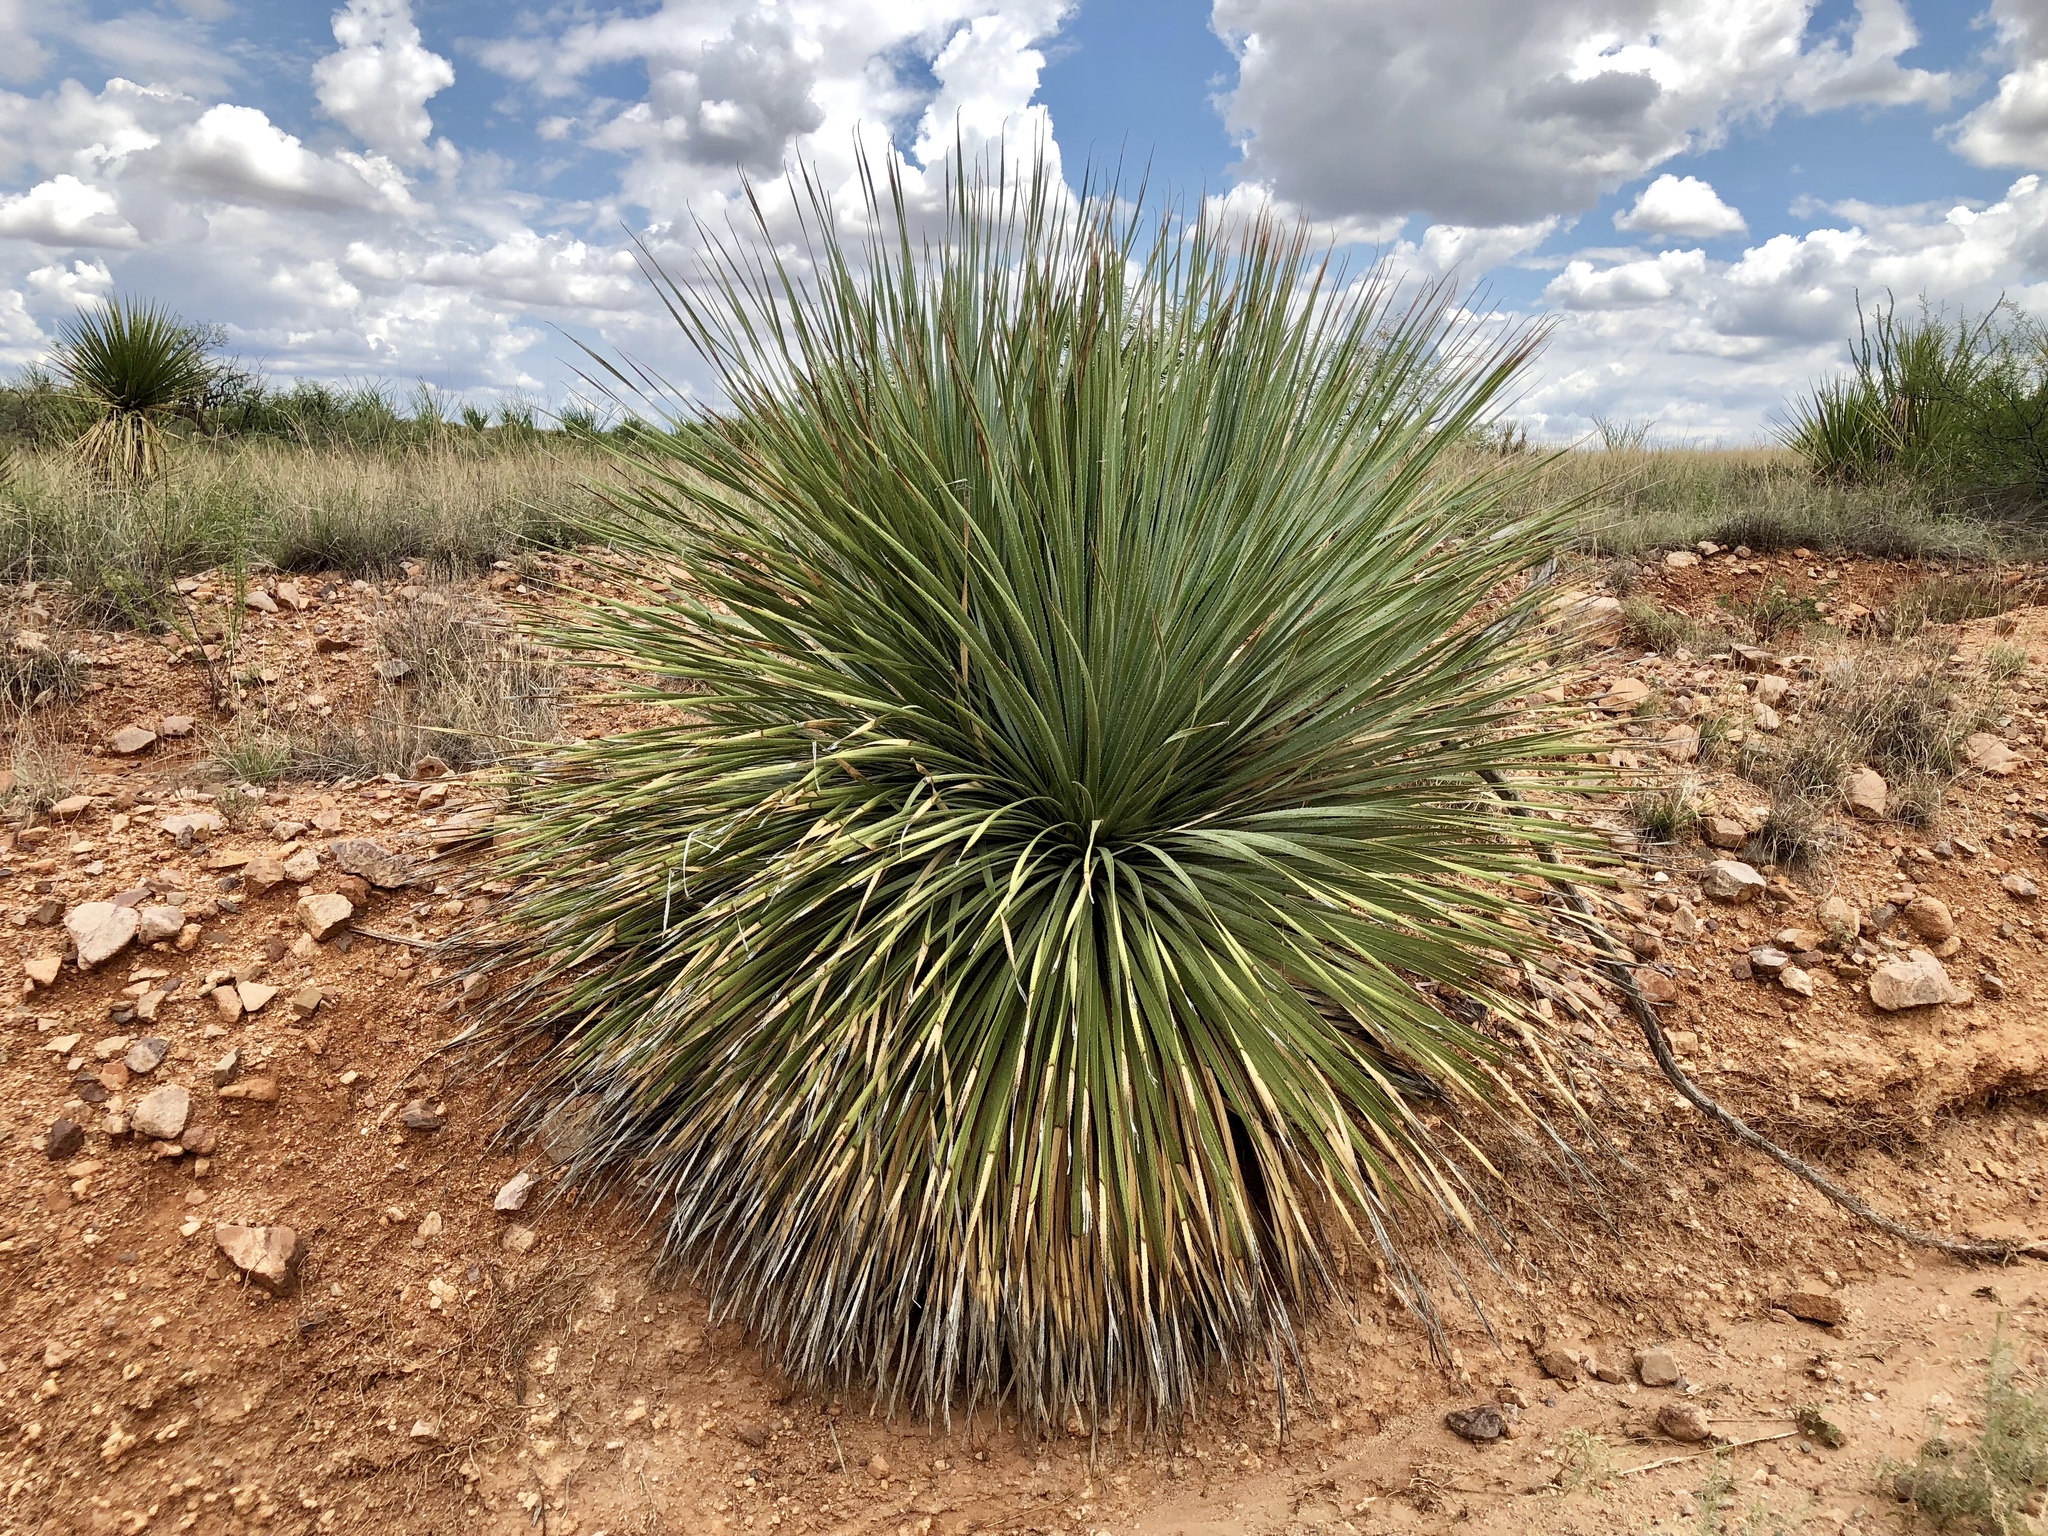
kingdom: Plantae
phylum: Tracheophyta
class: Liliopsida
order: Asparagales
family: Asparagaceae
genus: Dasylirion
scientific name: Dasylirion wheeleri
